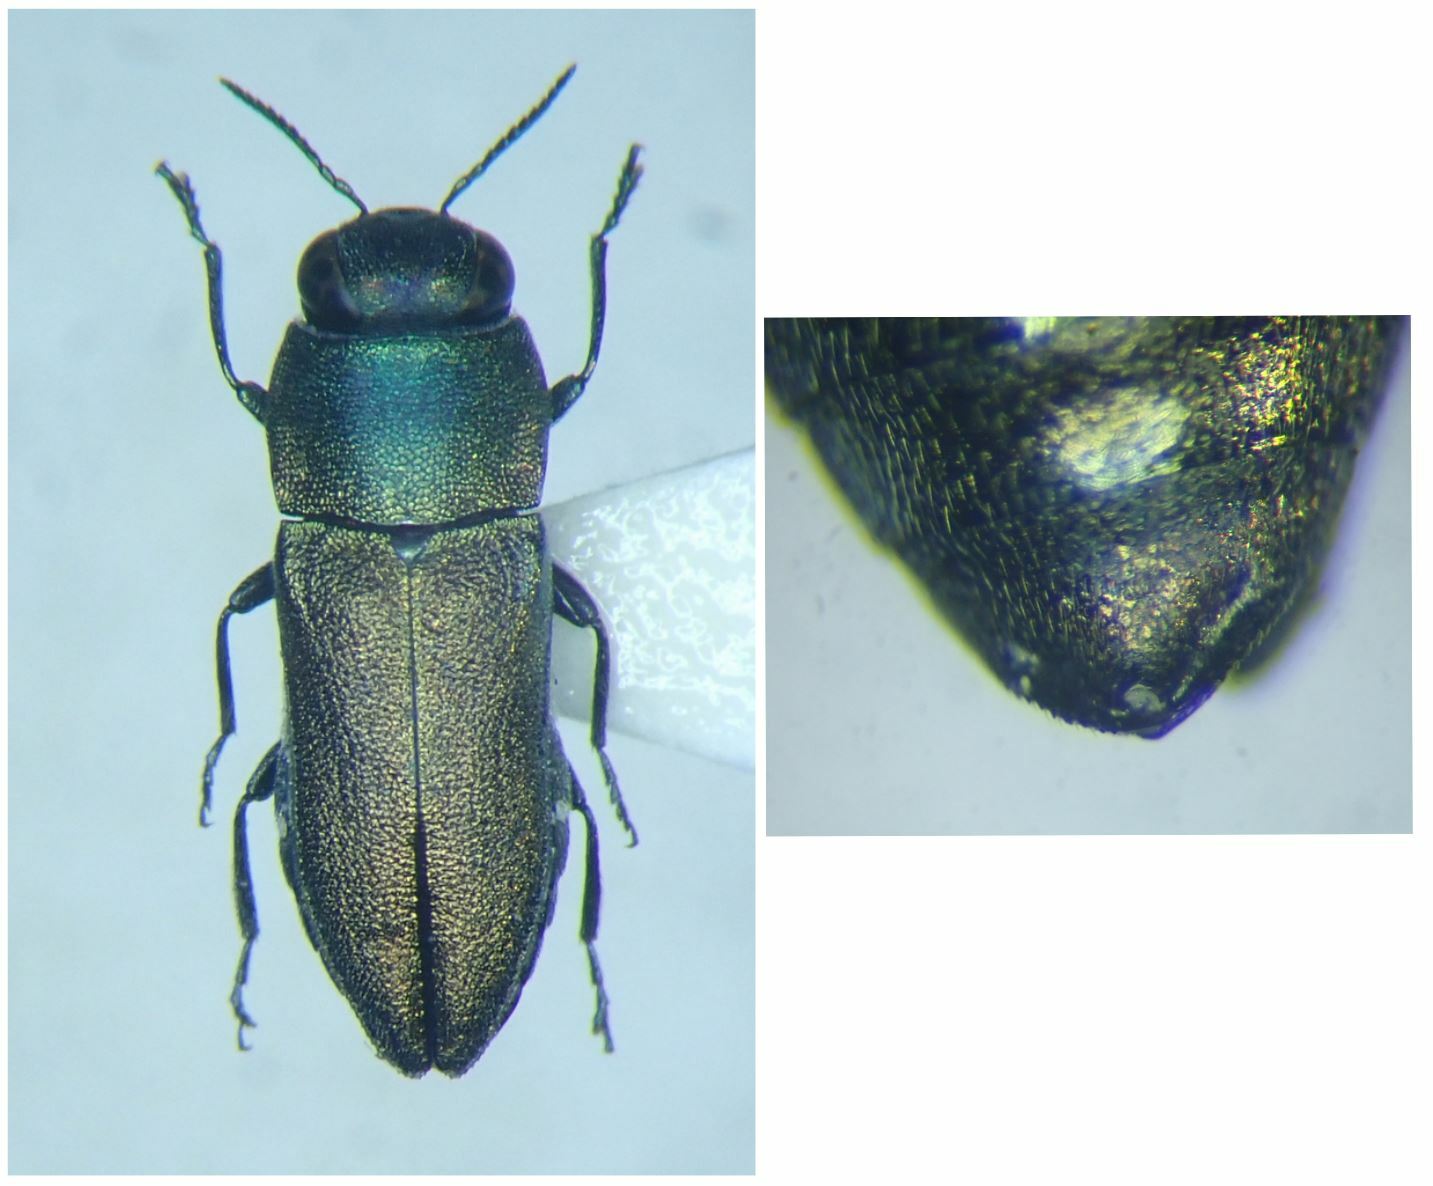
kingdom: Animalia
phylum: Arthropoda
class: Insecta
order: Coleoptera
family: Buprestidae
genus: Anthaxia
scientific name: Anthaxia millefolii
